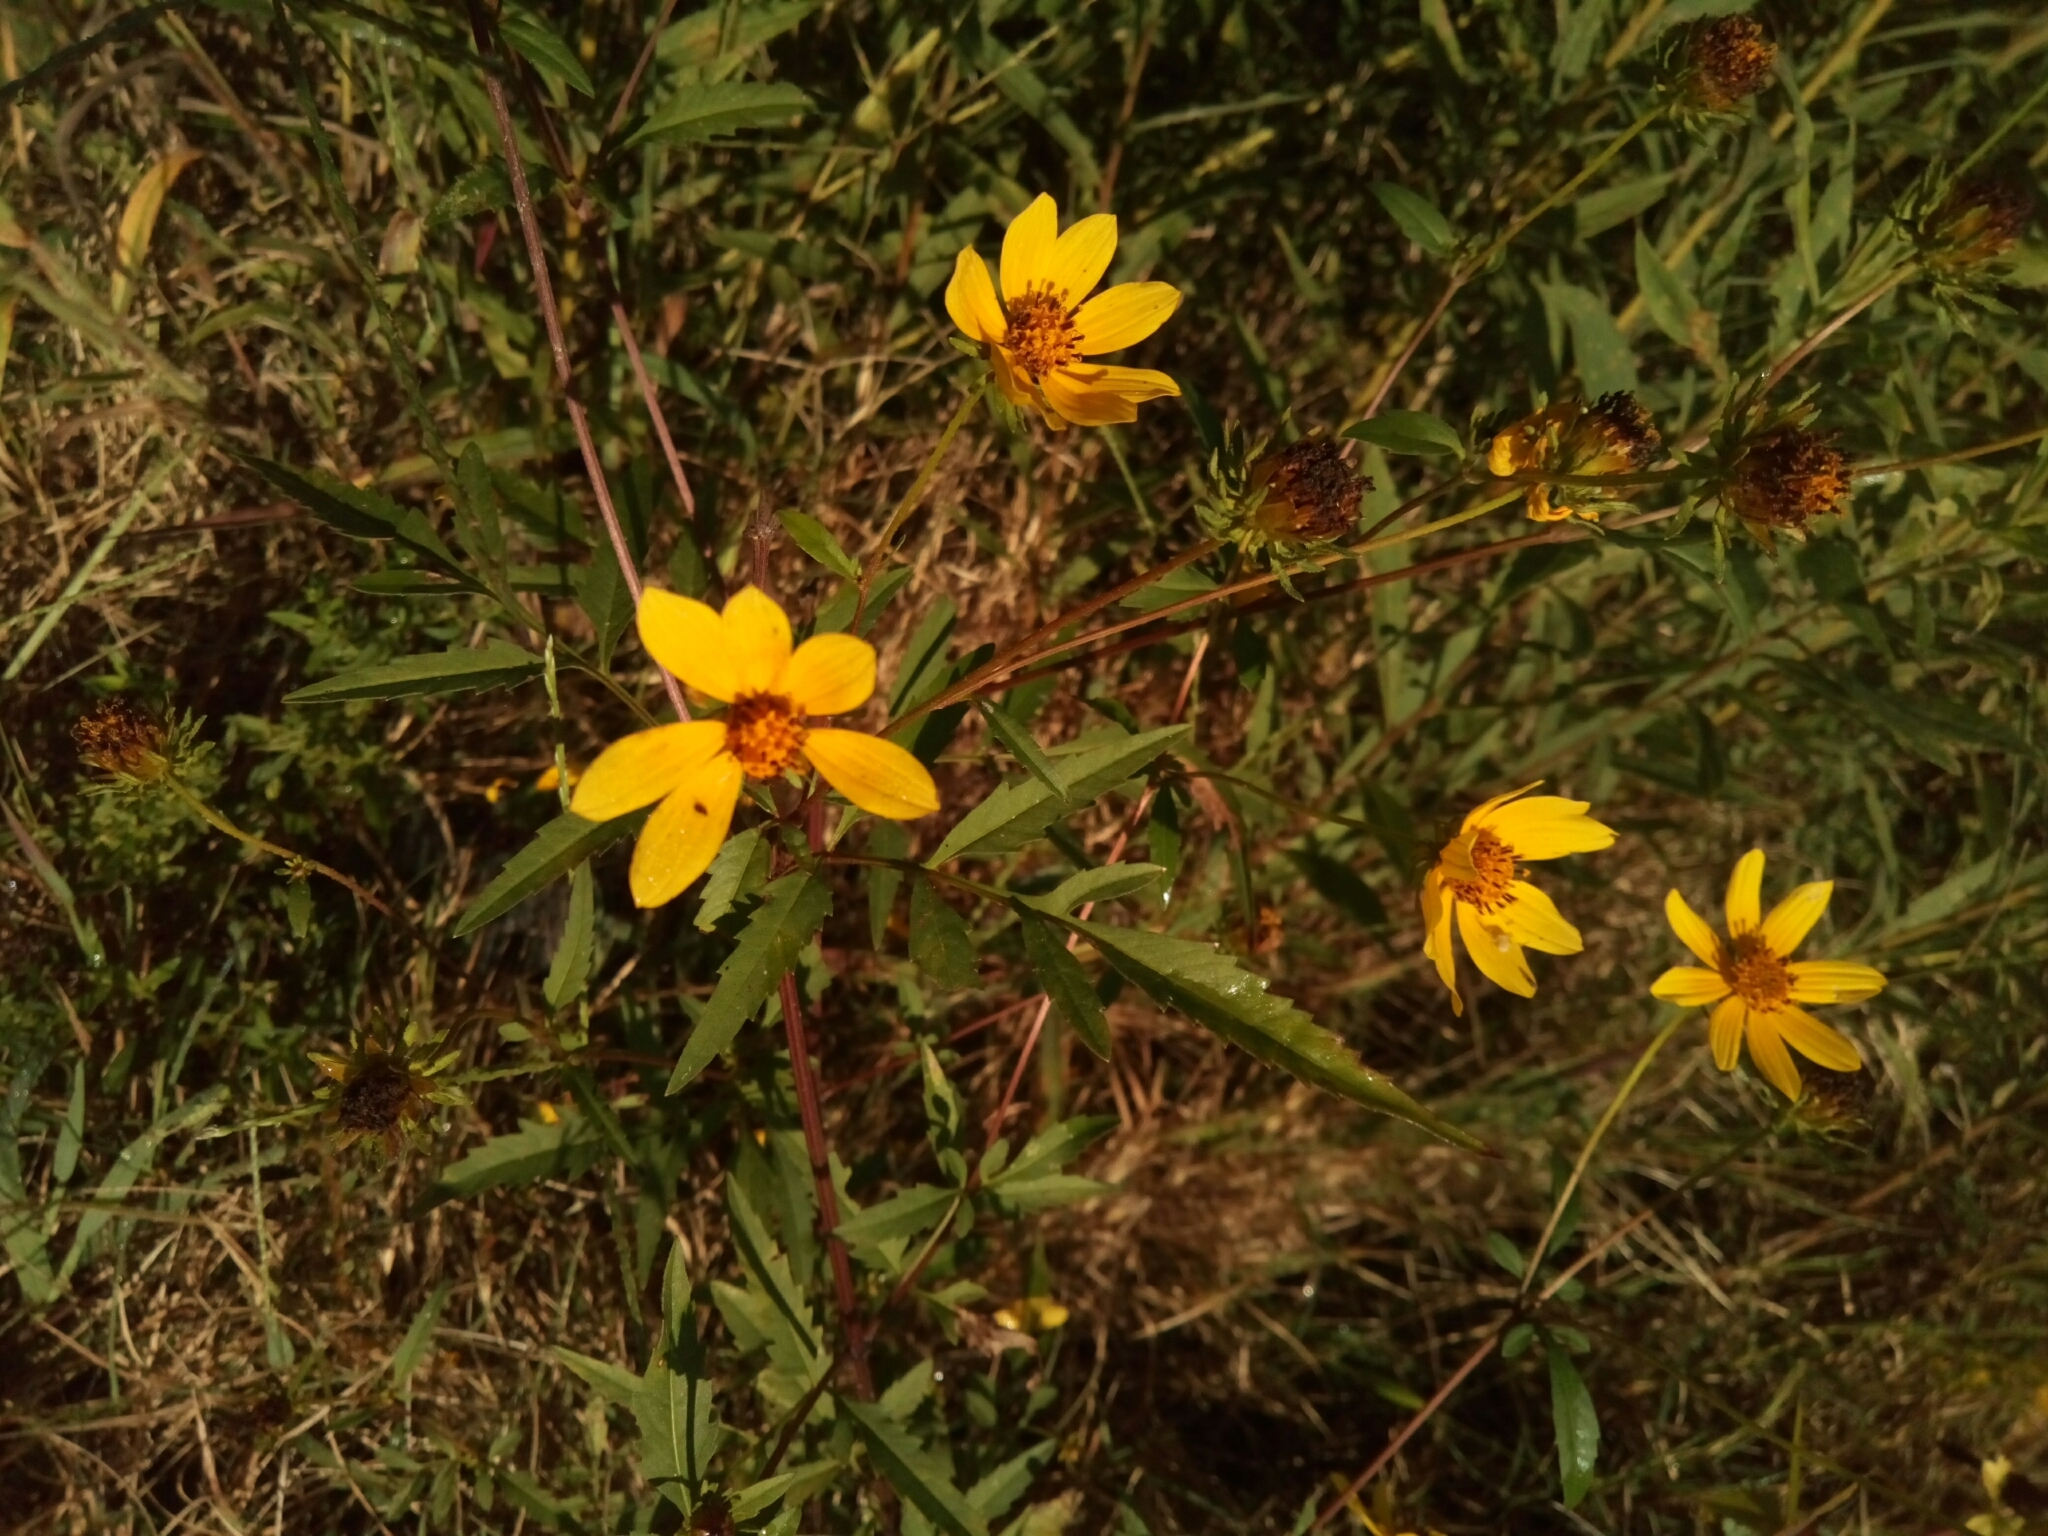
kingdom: Plantae
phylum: Tracheophyta
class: Magnoliopsida
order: Asterales
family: Asteraceae
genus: Bidens
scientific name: Bidens aristosa
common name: Western tickseed
